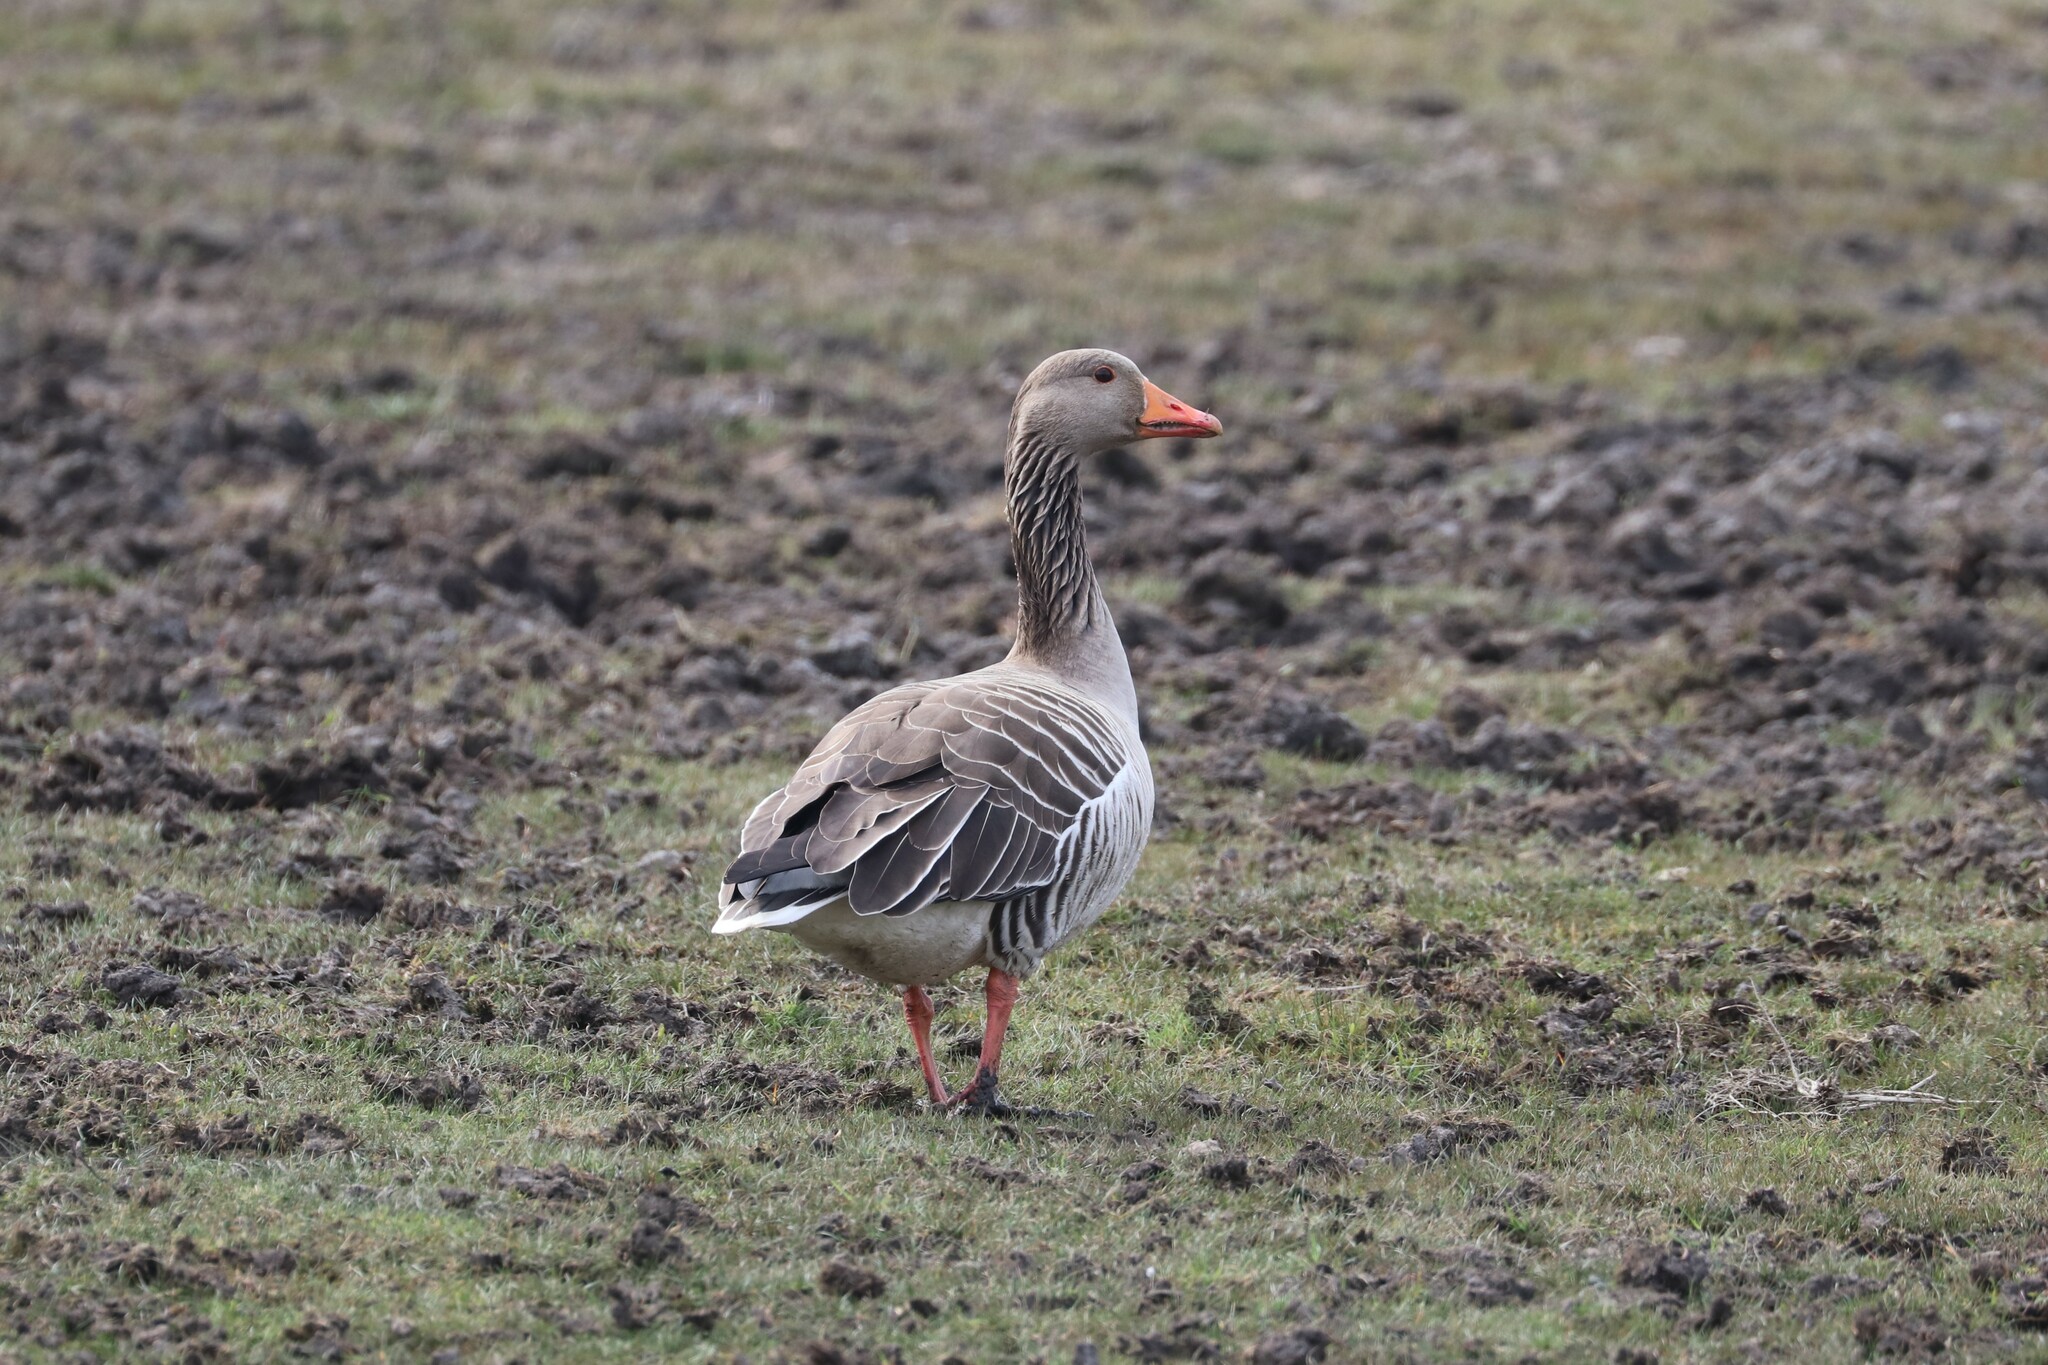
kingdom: Animalia
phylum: Chordata
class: Aves
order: Anseriformes
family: Anatidae
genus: Anser
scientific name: Anser anser
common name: Greylag goose
